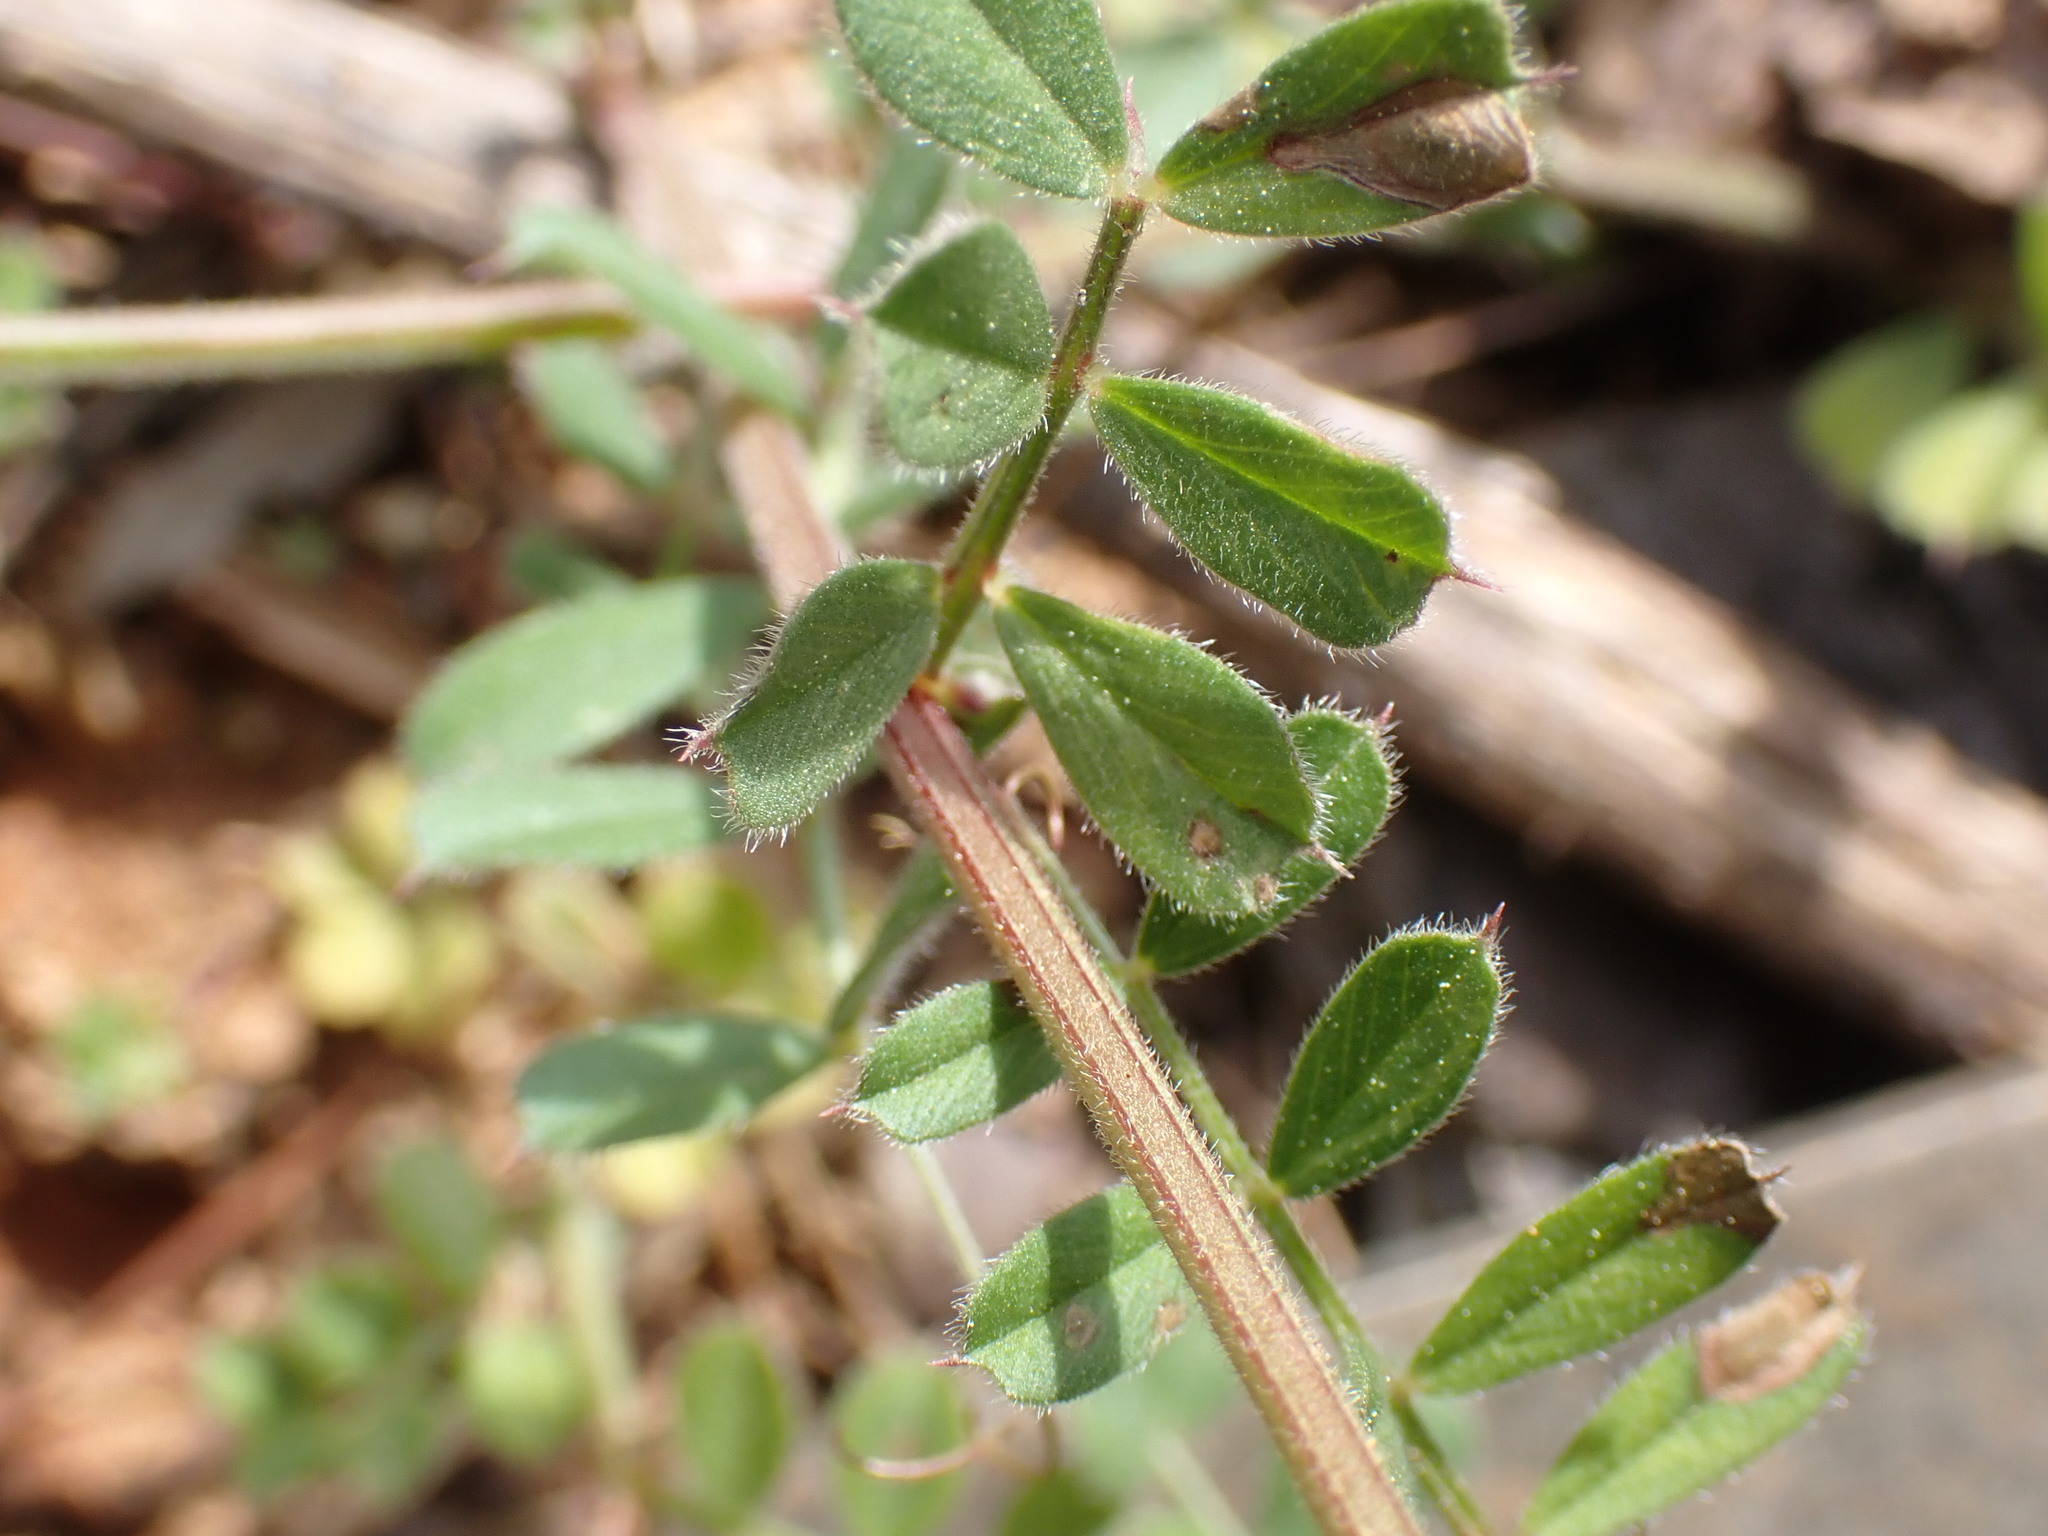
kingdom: Plantae
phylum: Tracheophyta
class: Magnoliopsida
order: Fabales
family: Fabaceae
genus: Vicia
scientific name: Vicia sativa
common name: Garden vetch
